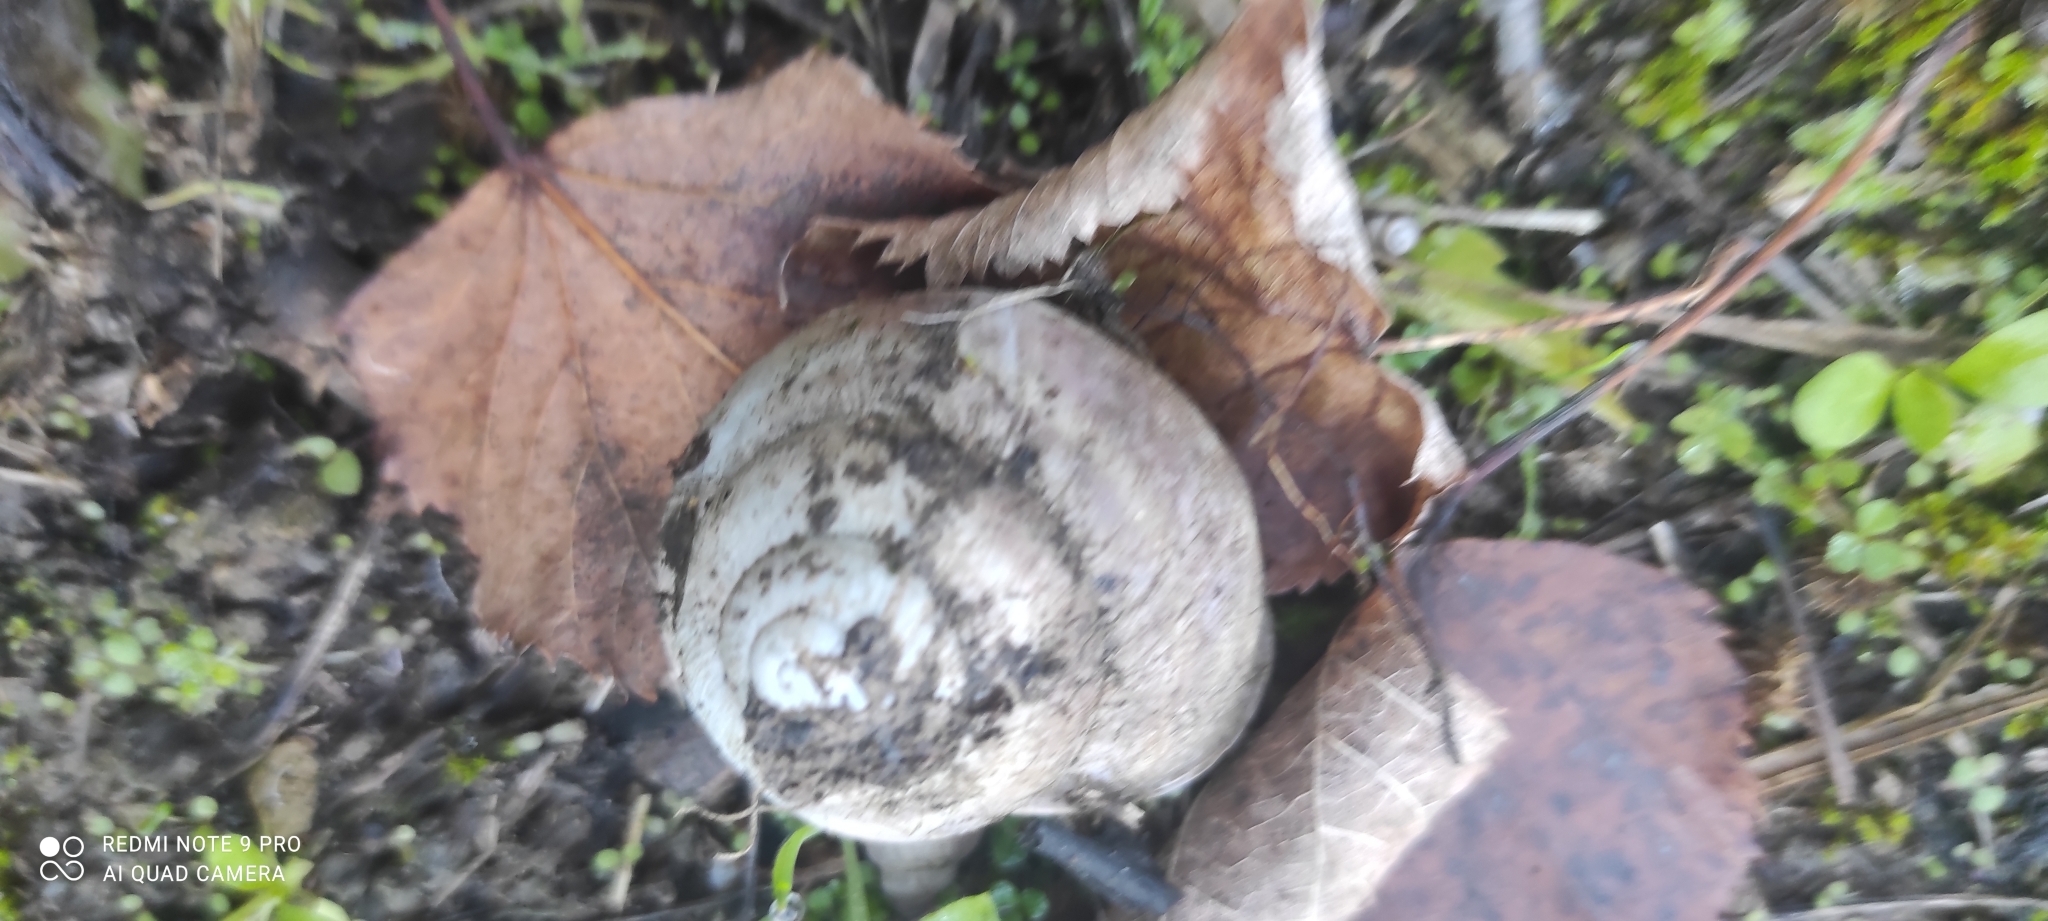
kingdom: Animalia
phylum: Mollusca
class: Gastropoda
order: Stylommatophora
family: Helicidae
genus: Helix
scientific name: Helix straminea
